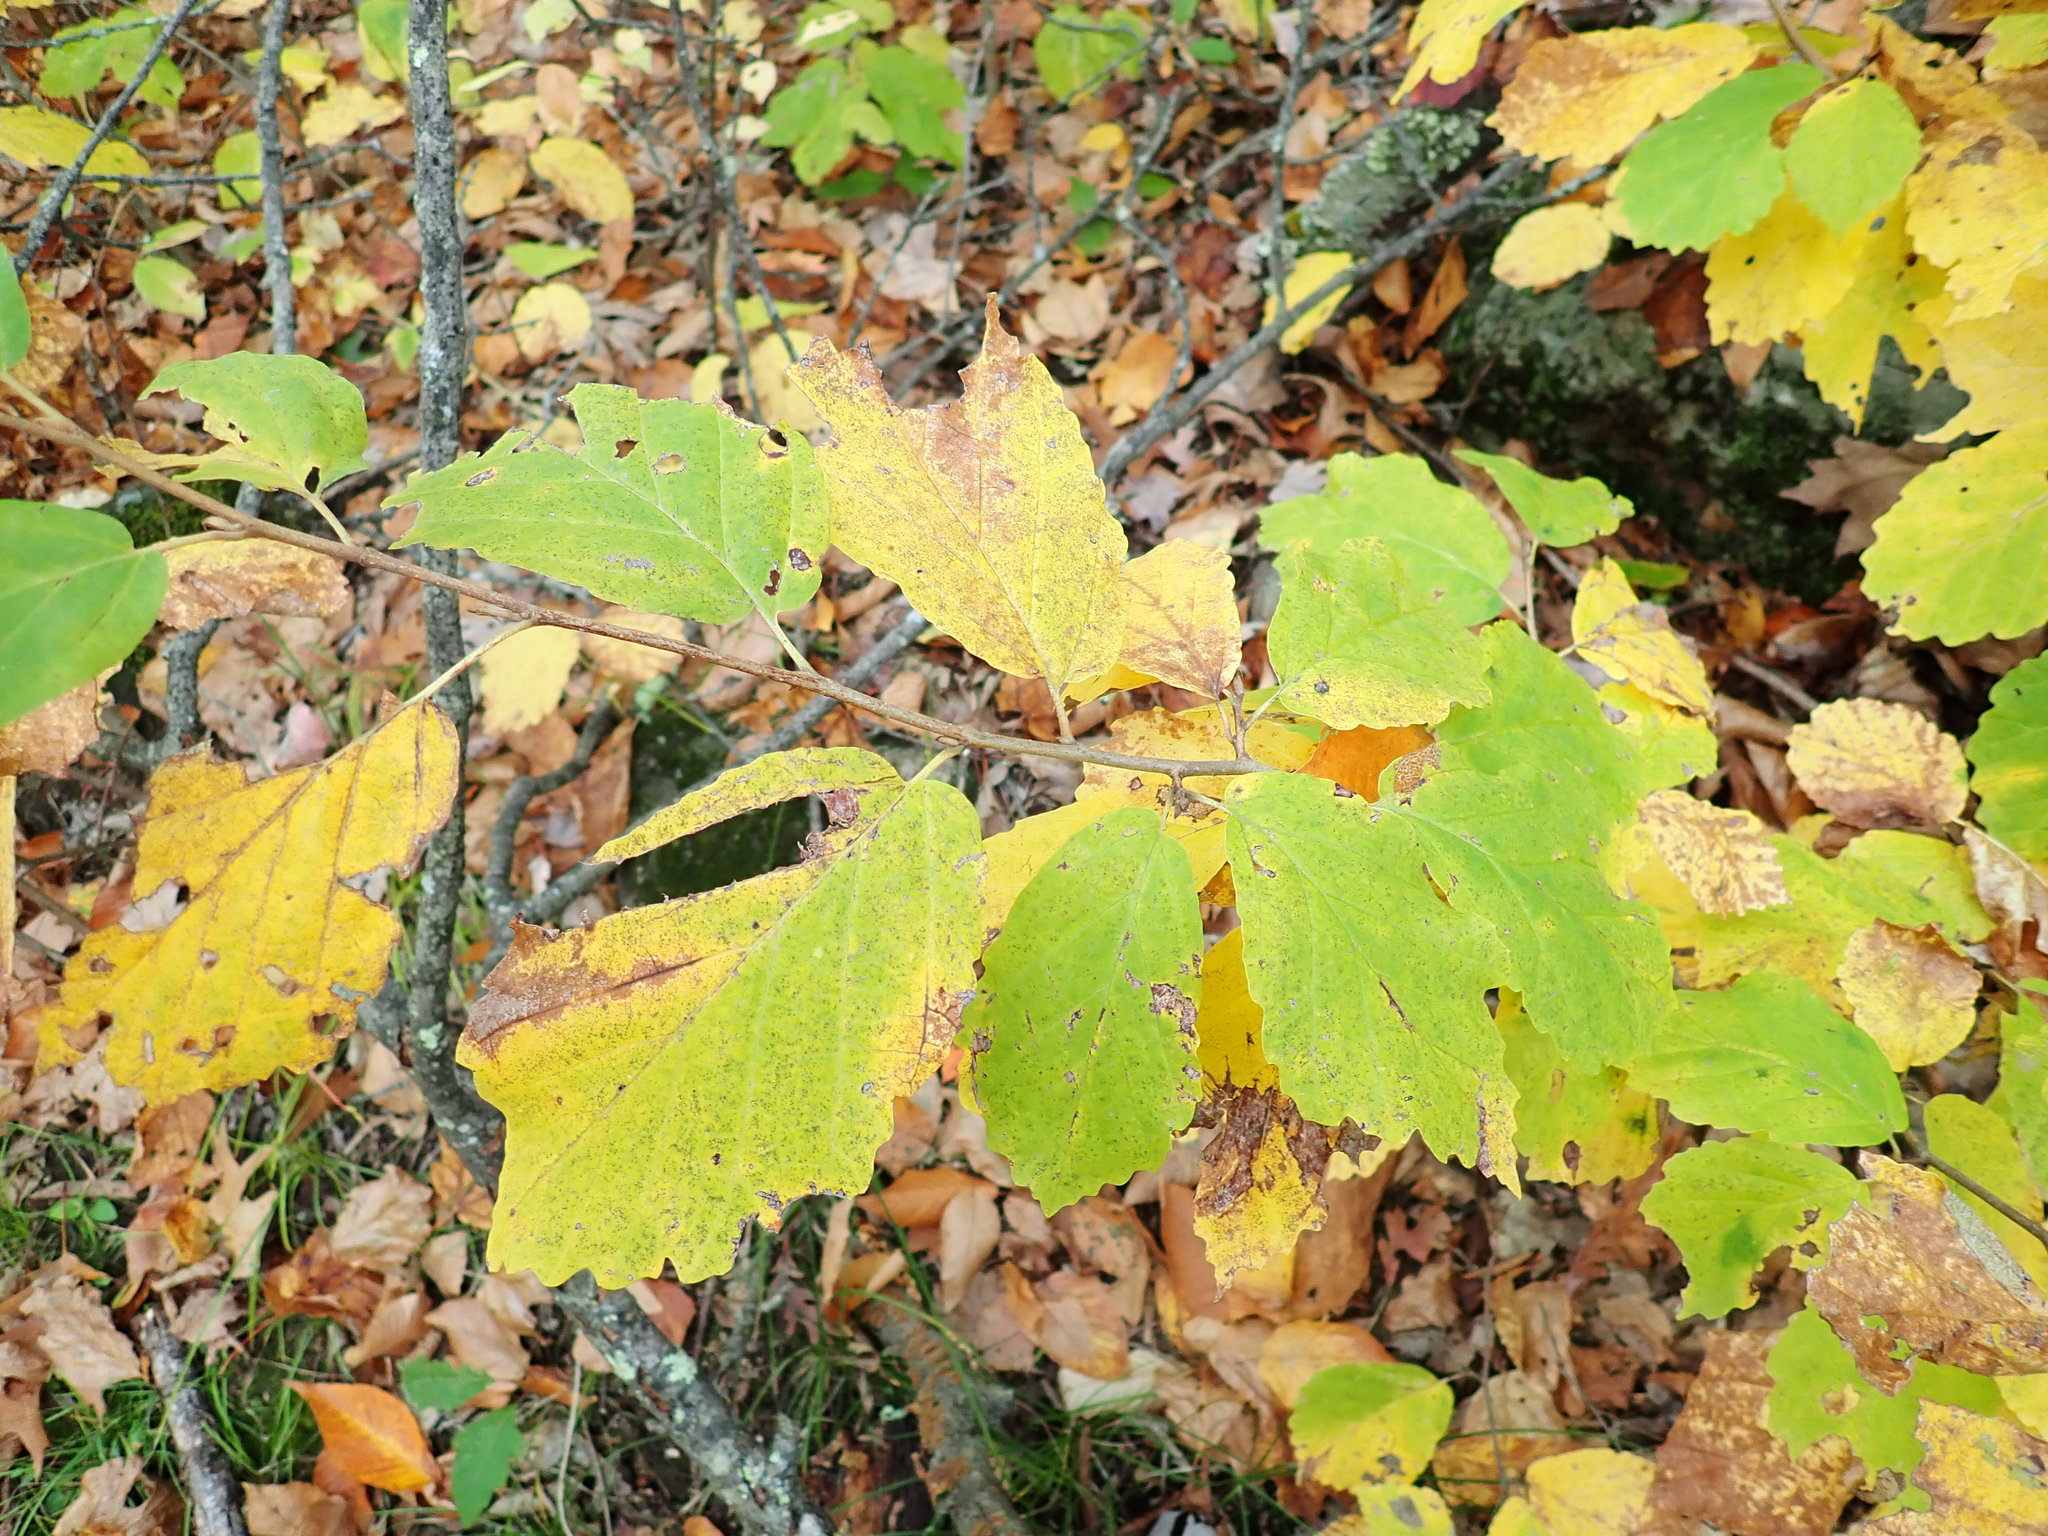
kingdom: Plantae
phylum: Tracheophyta
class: Magnoliopsida
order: Saxifragales
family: Hamamelidaceae
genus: Hamamelis
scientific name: Hamamelis virginiana
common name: Witch-hazel
